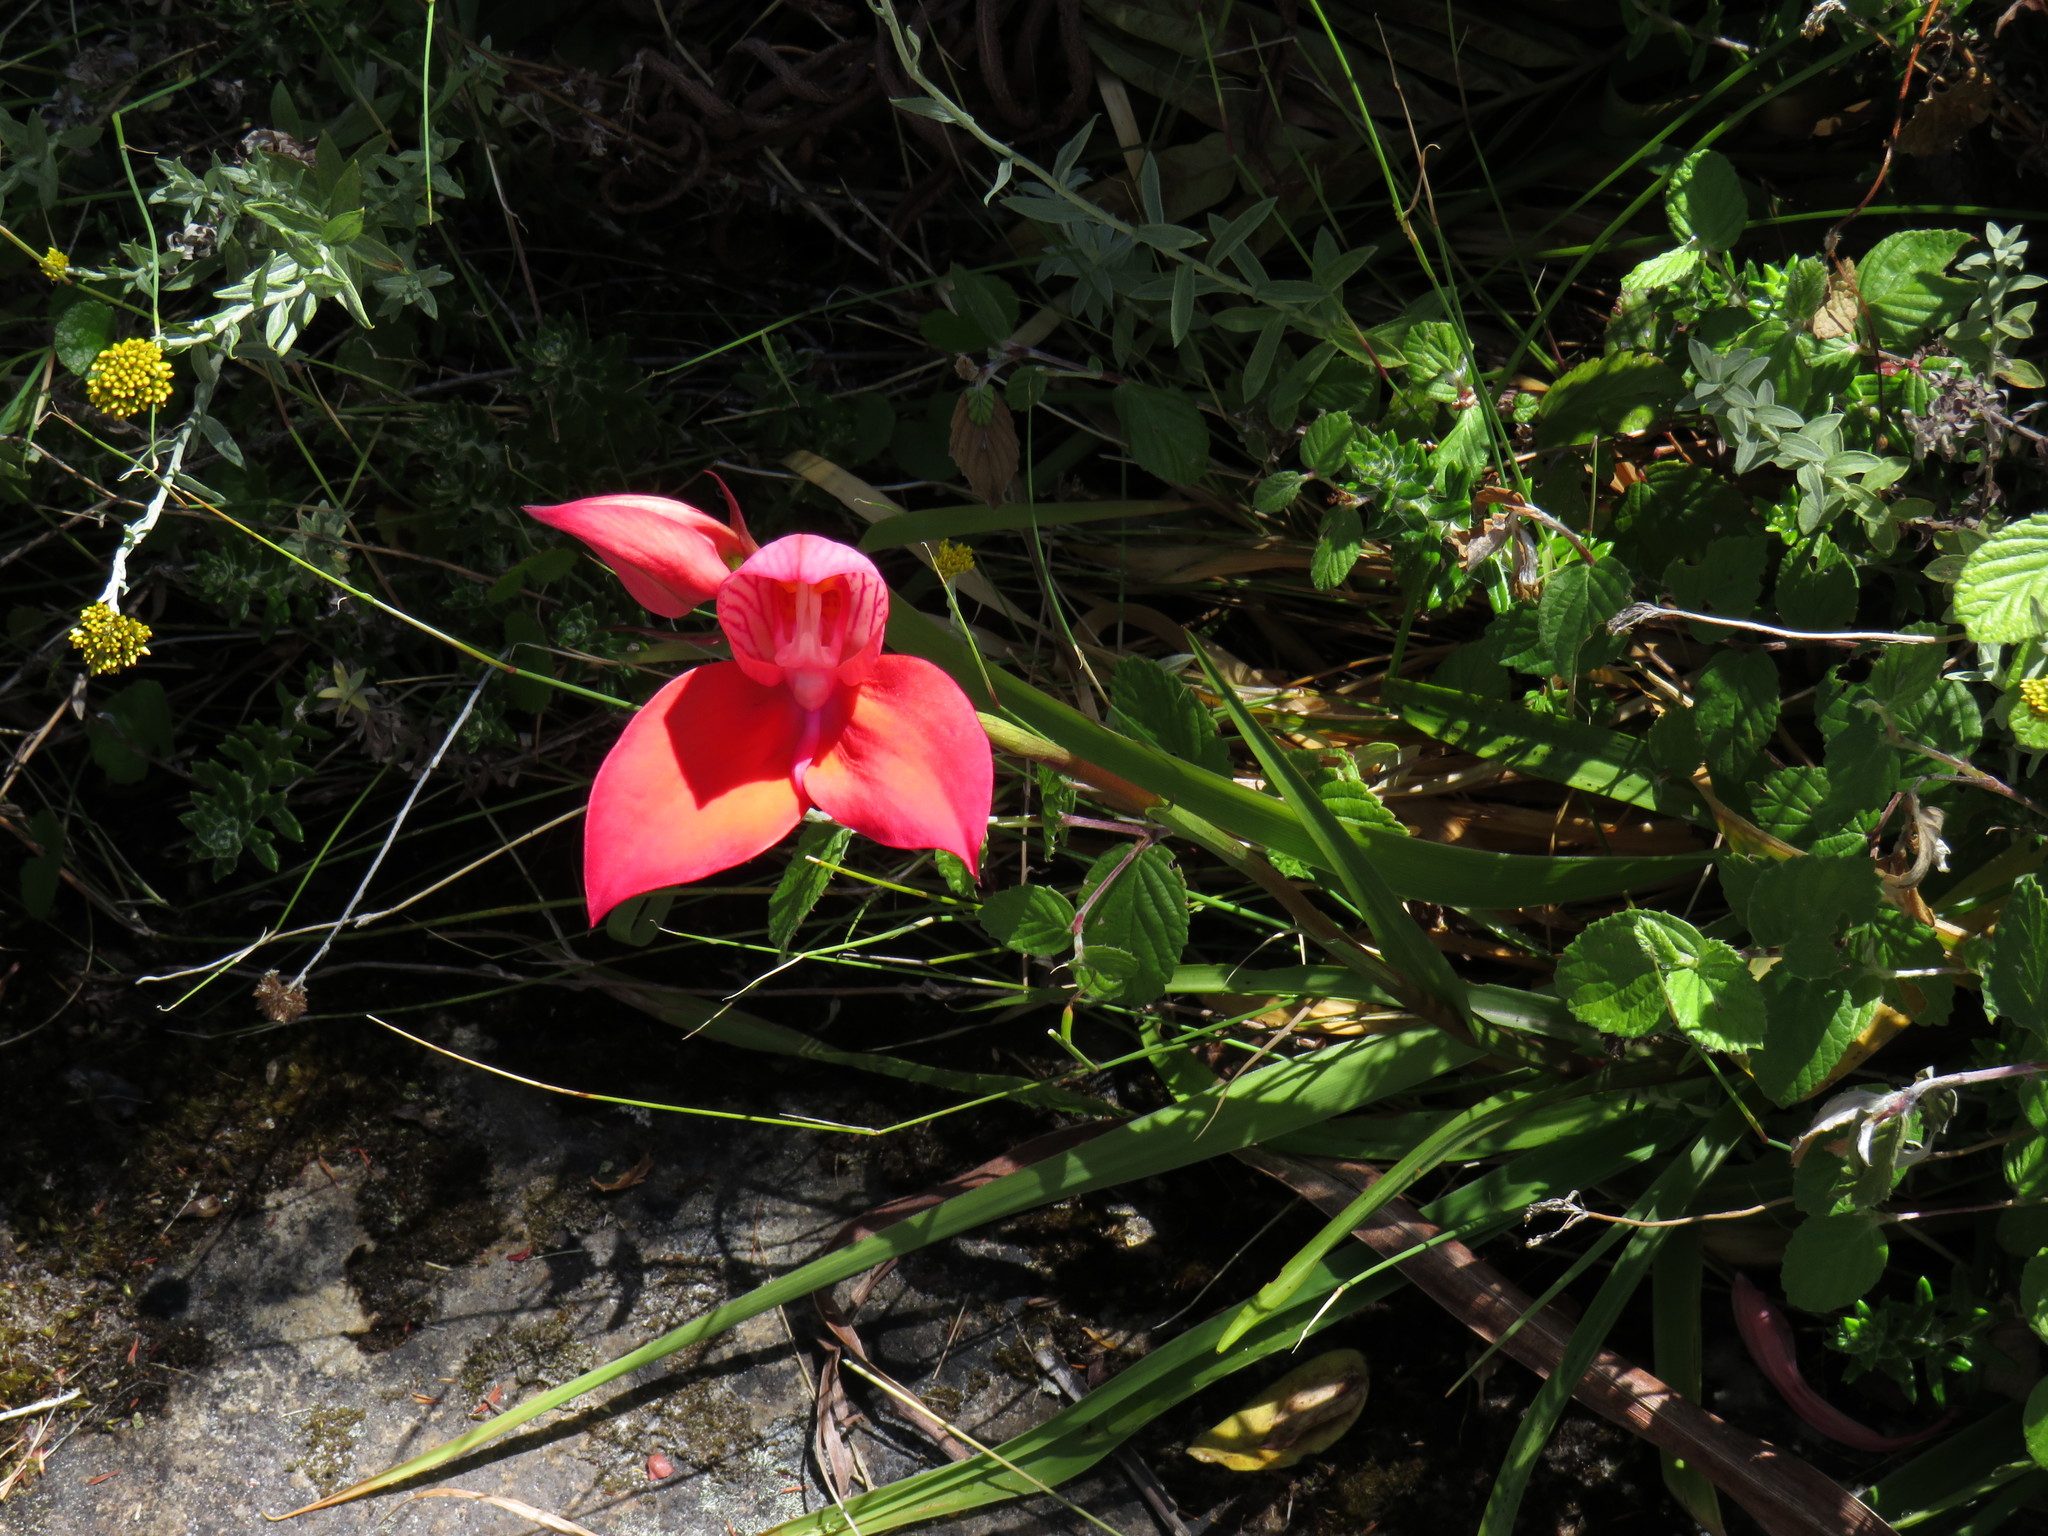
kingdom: Plantae
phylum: Tracheophyta
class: Liliopsida
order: Asparagales
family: Orchidaceae
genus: Disa
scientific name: Disa uniflora
